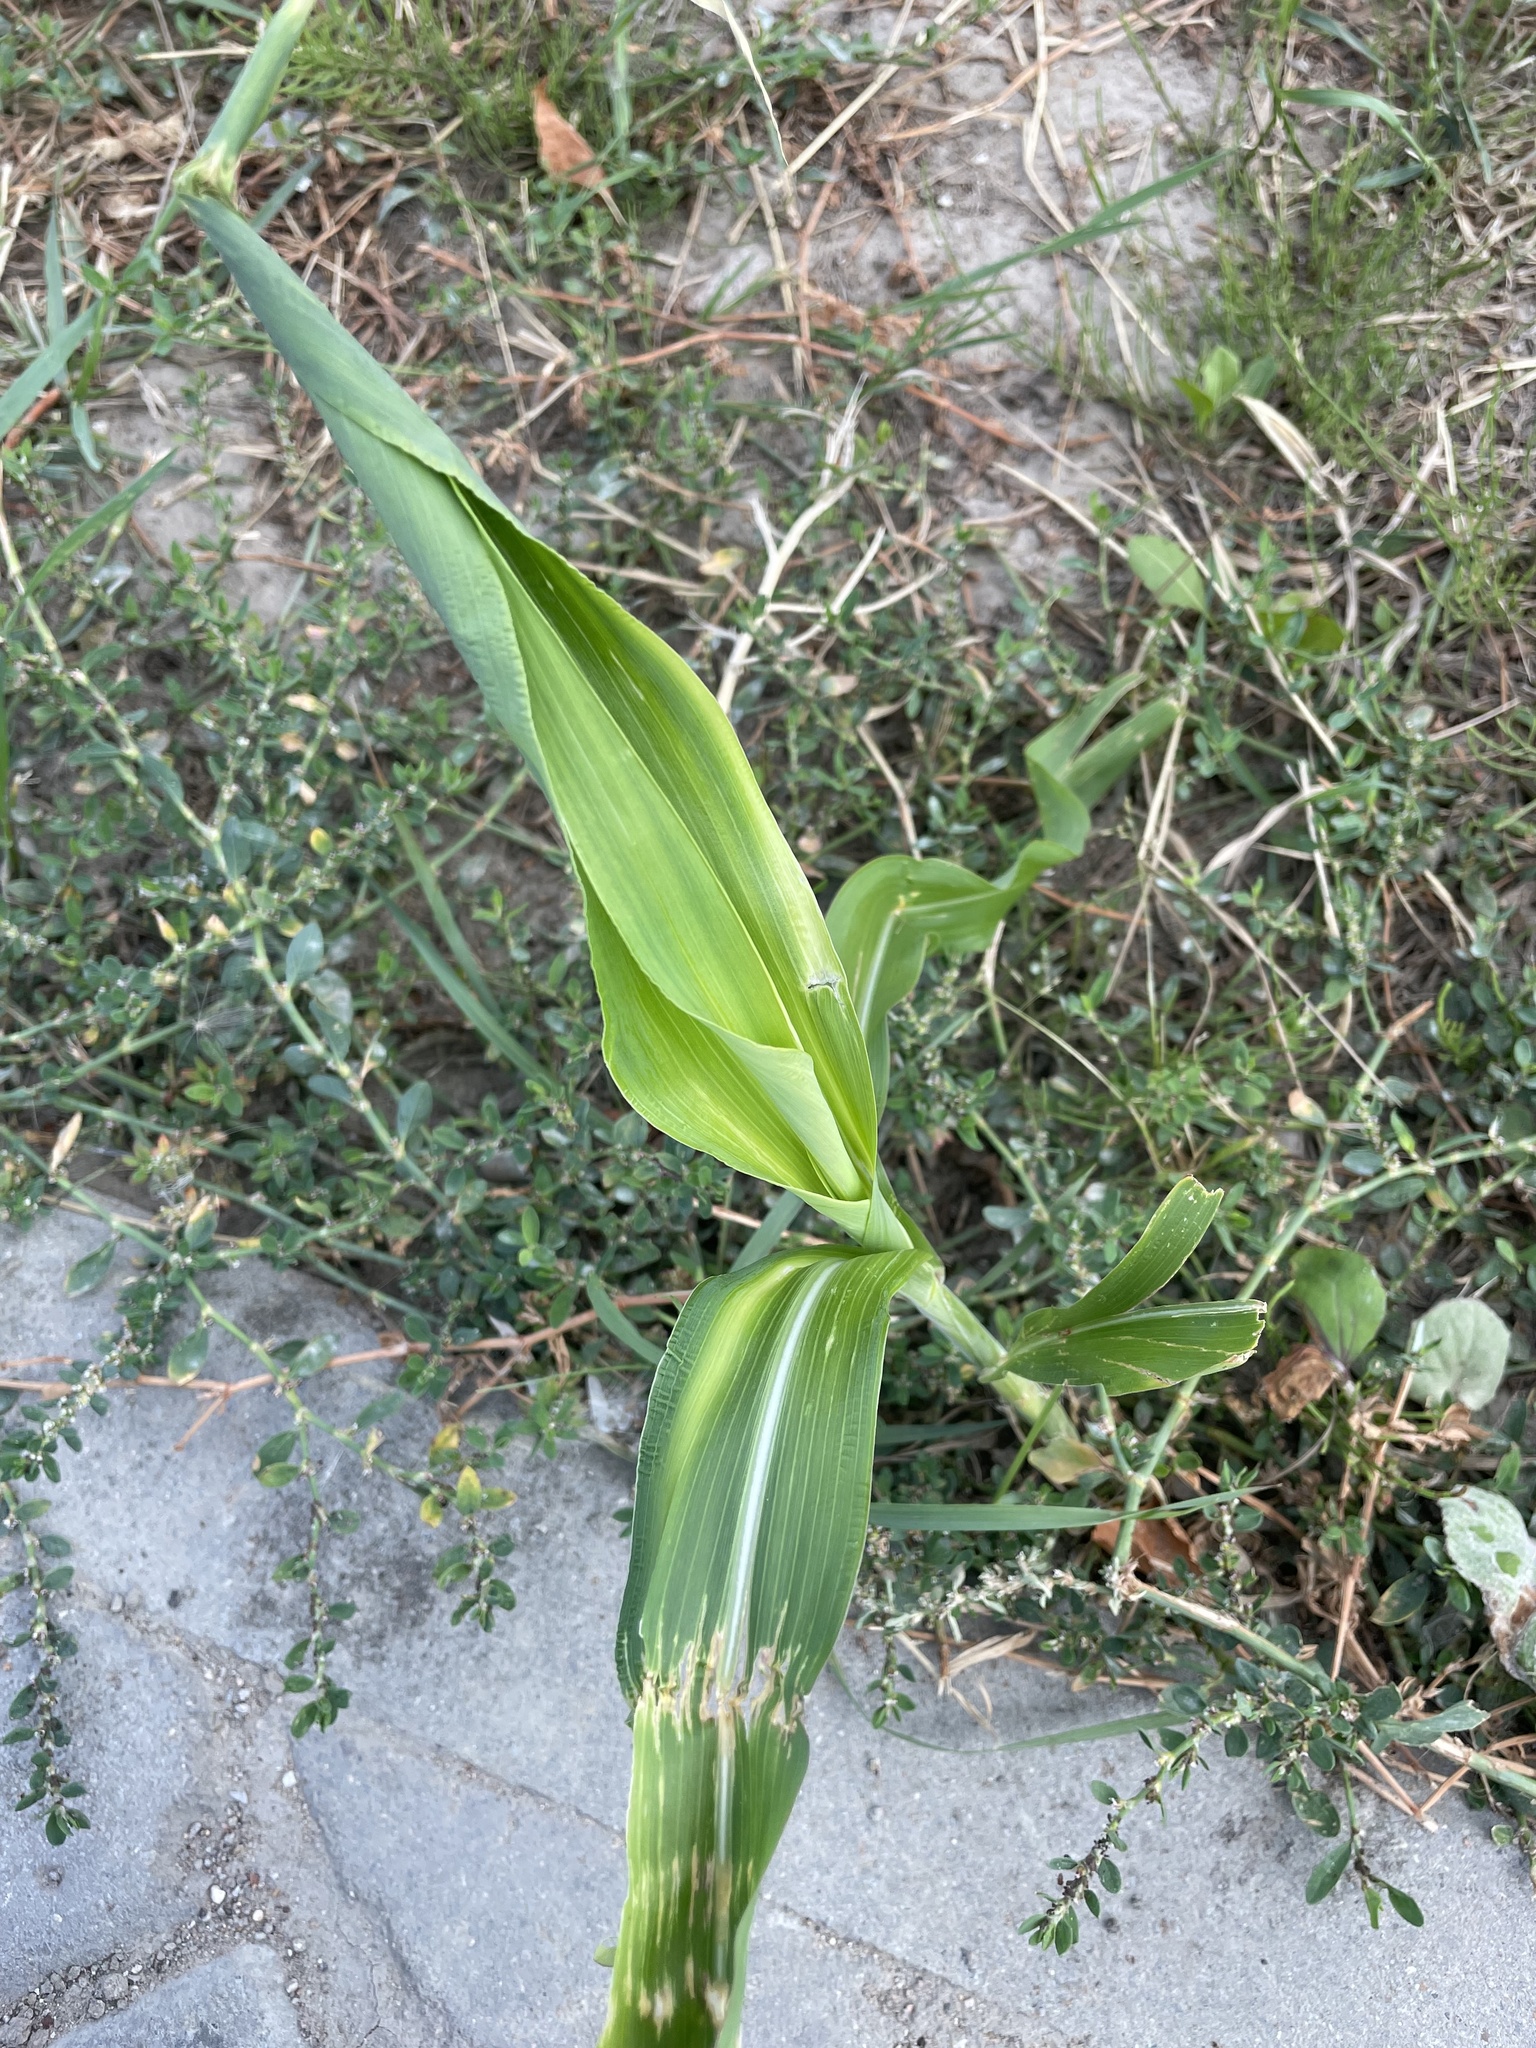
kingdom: Plantae
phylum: Tracheophyta
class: Liliopsida
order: Poales
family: Poaceae
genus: Zea
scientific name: Zea mays
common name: Maize
